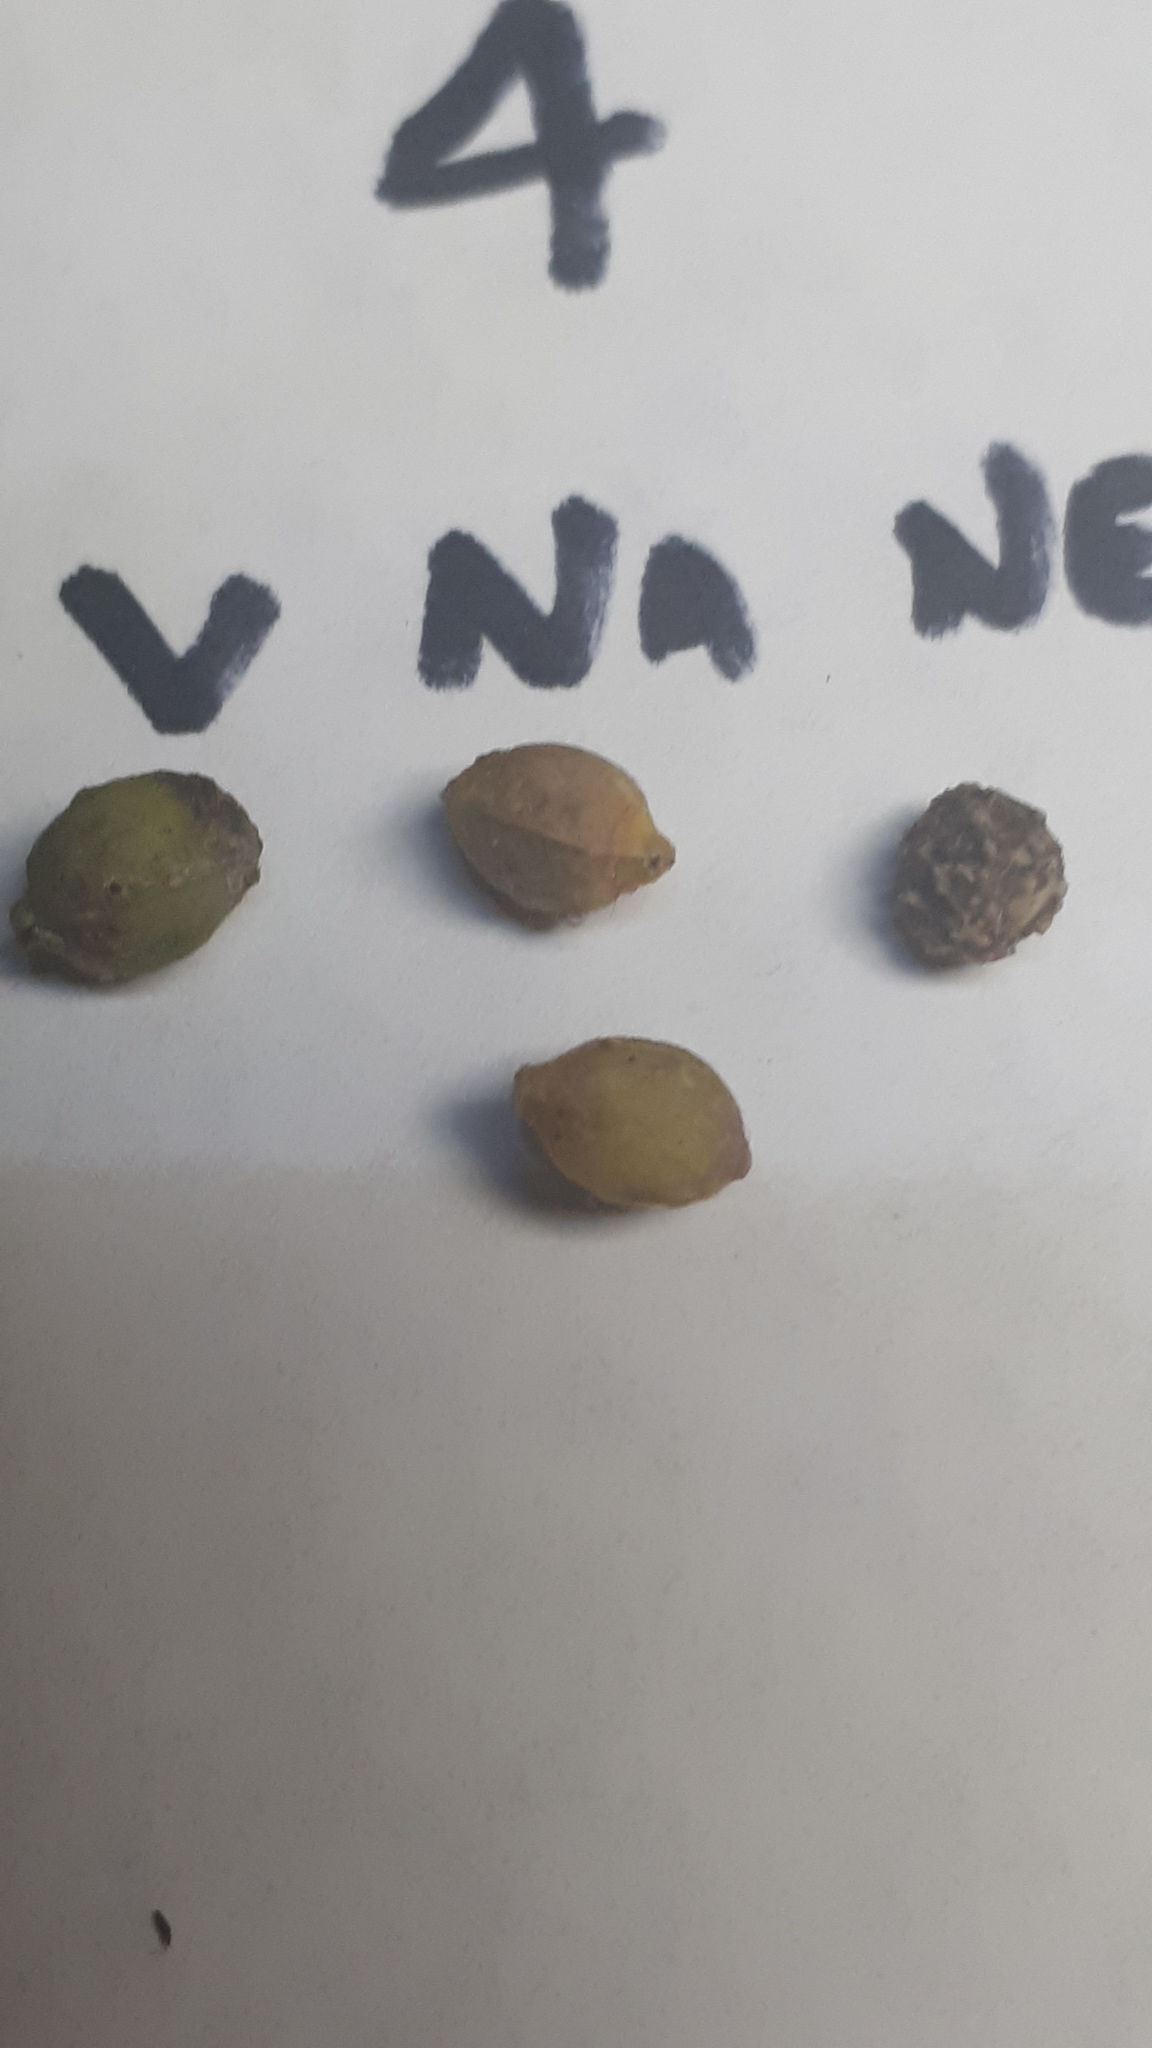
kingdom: Plantae
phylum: Tracheophyta
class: Magnoliopsida
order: Rosales
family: Cannabaceae
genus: Celtis
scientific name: Celtis tala
